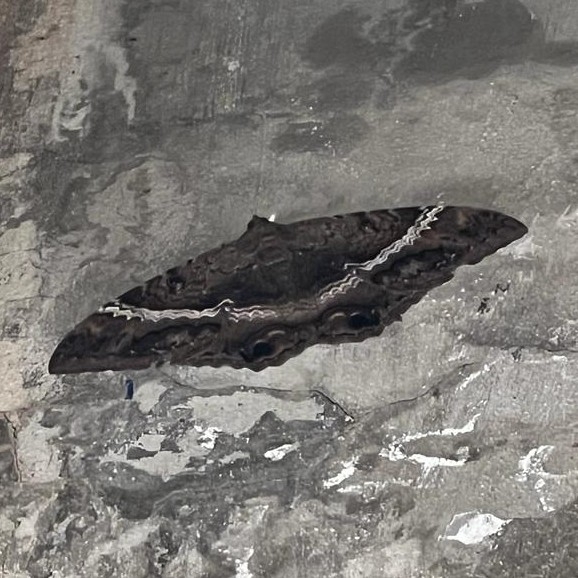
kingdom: Animalia
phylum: Arthropoda
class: Insecta
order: Lepidoptera
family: Erebidae
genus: Ascalapha
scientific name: Ascalapha odorata
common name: Black witch
